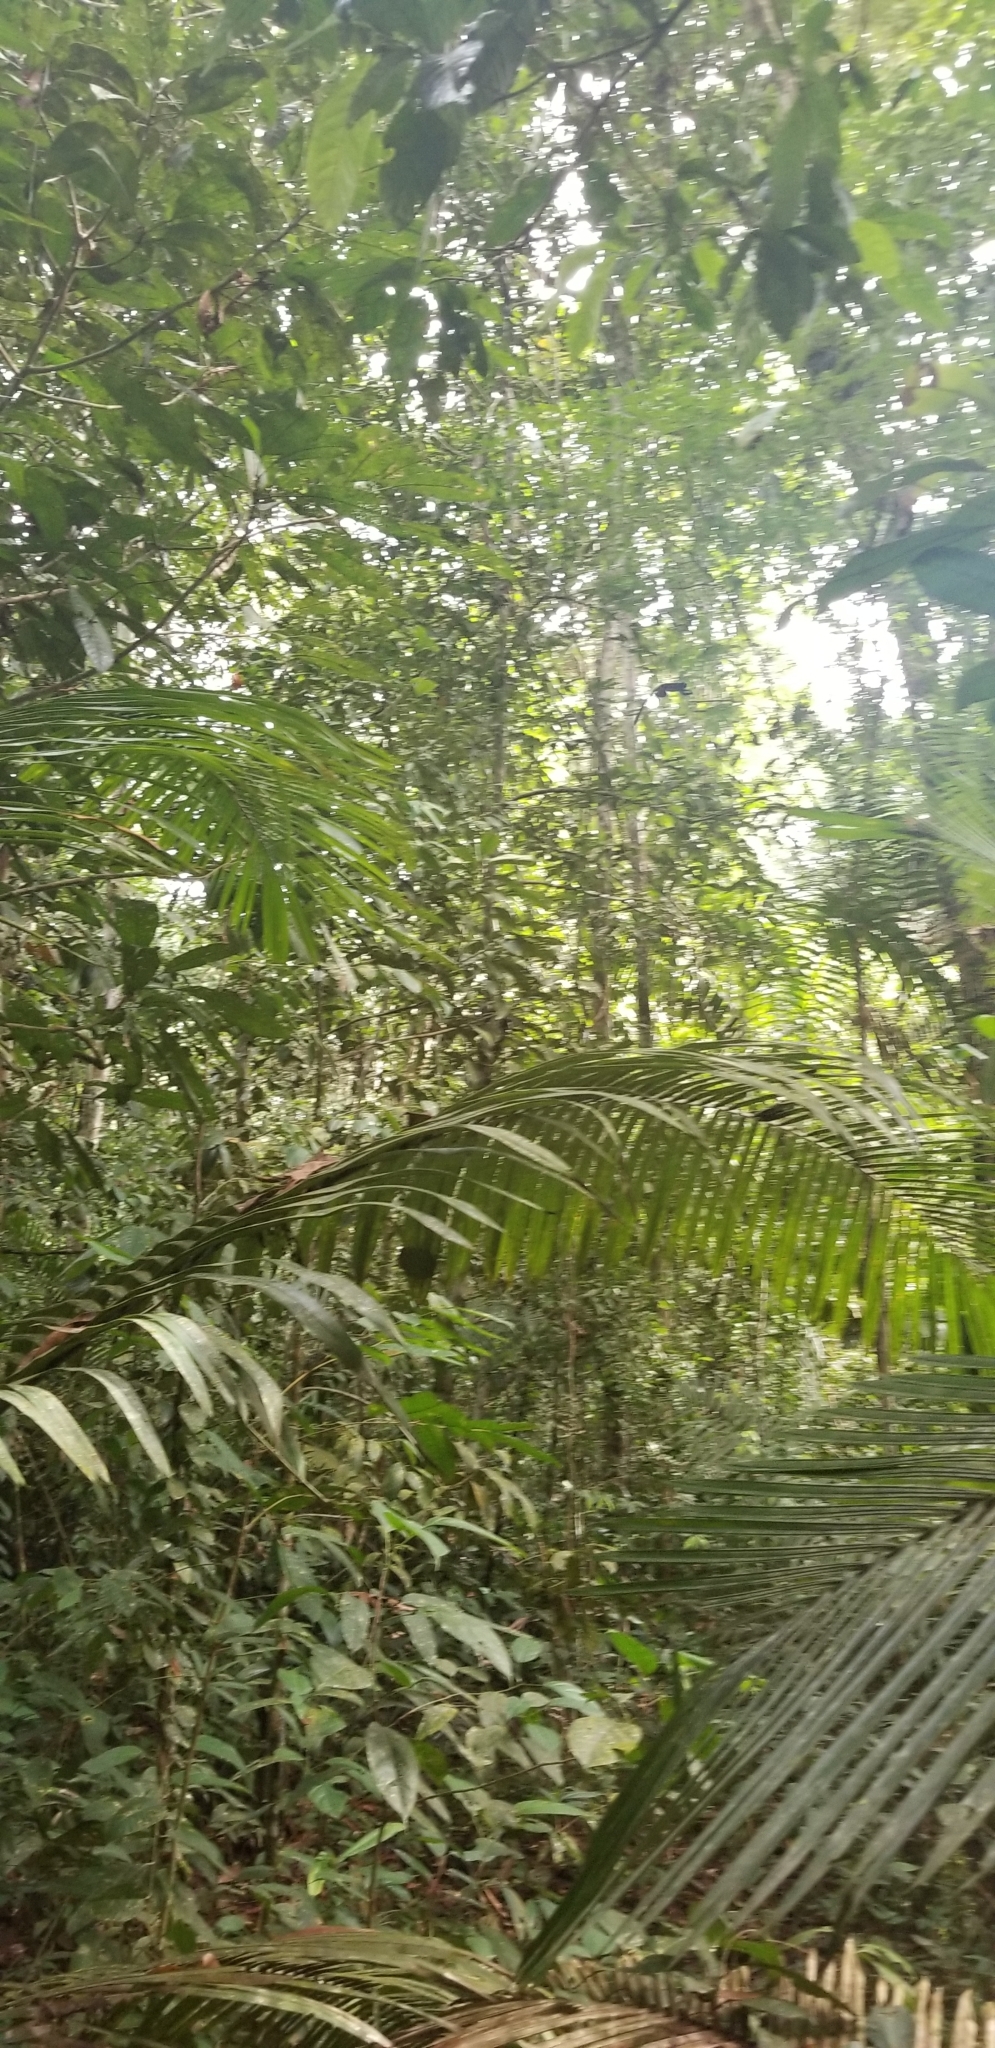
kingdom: Animalia
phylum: Chordata
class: Mammalia
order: Primates
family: Callitrichidae
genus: Leontocebus
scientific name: Leontocebus nigricollis
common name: Black-mantled tamarin
